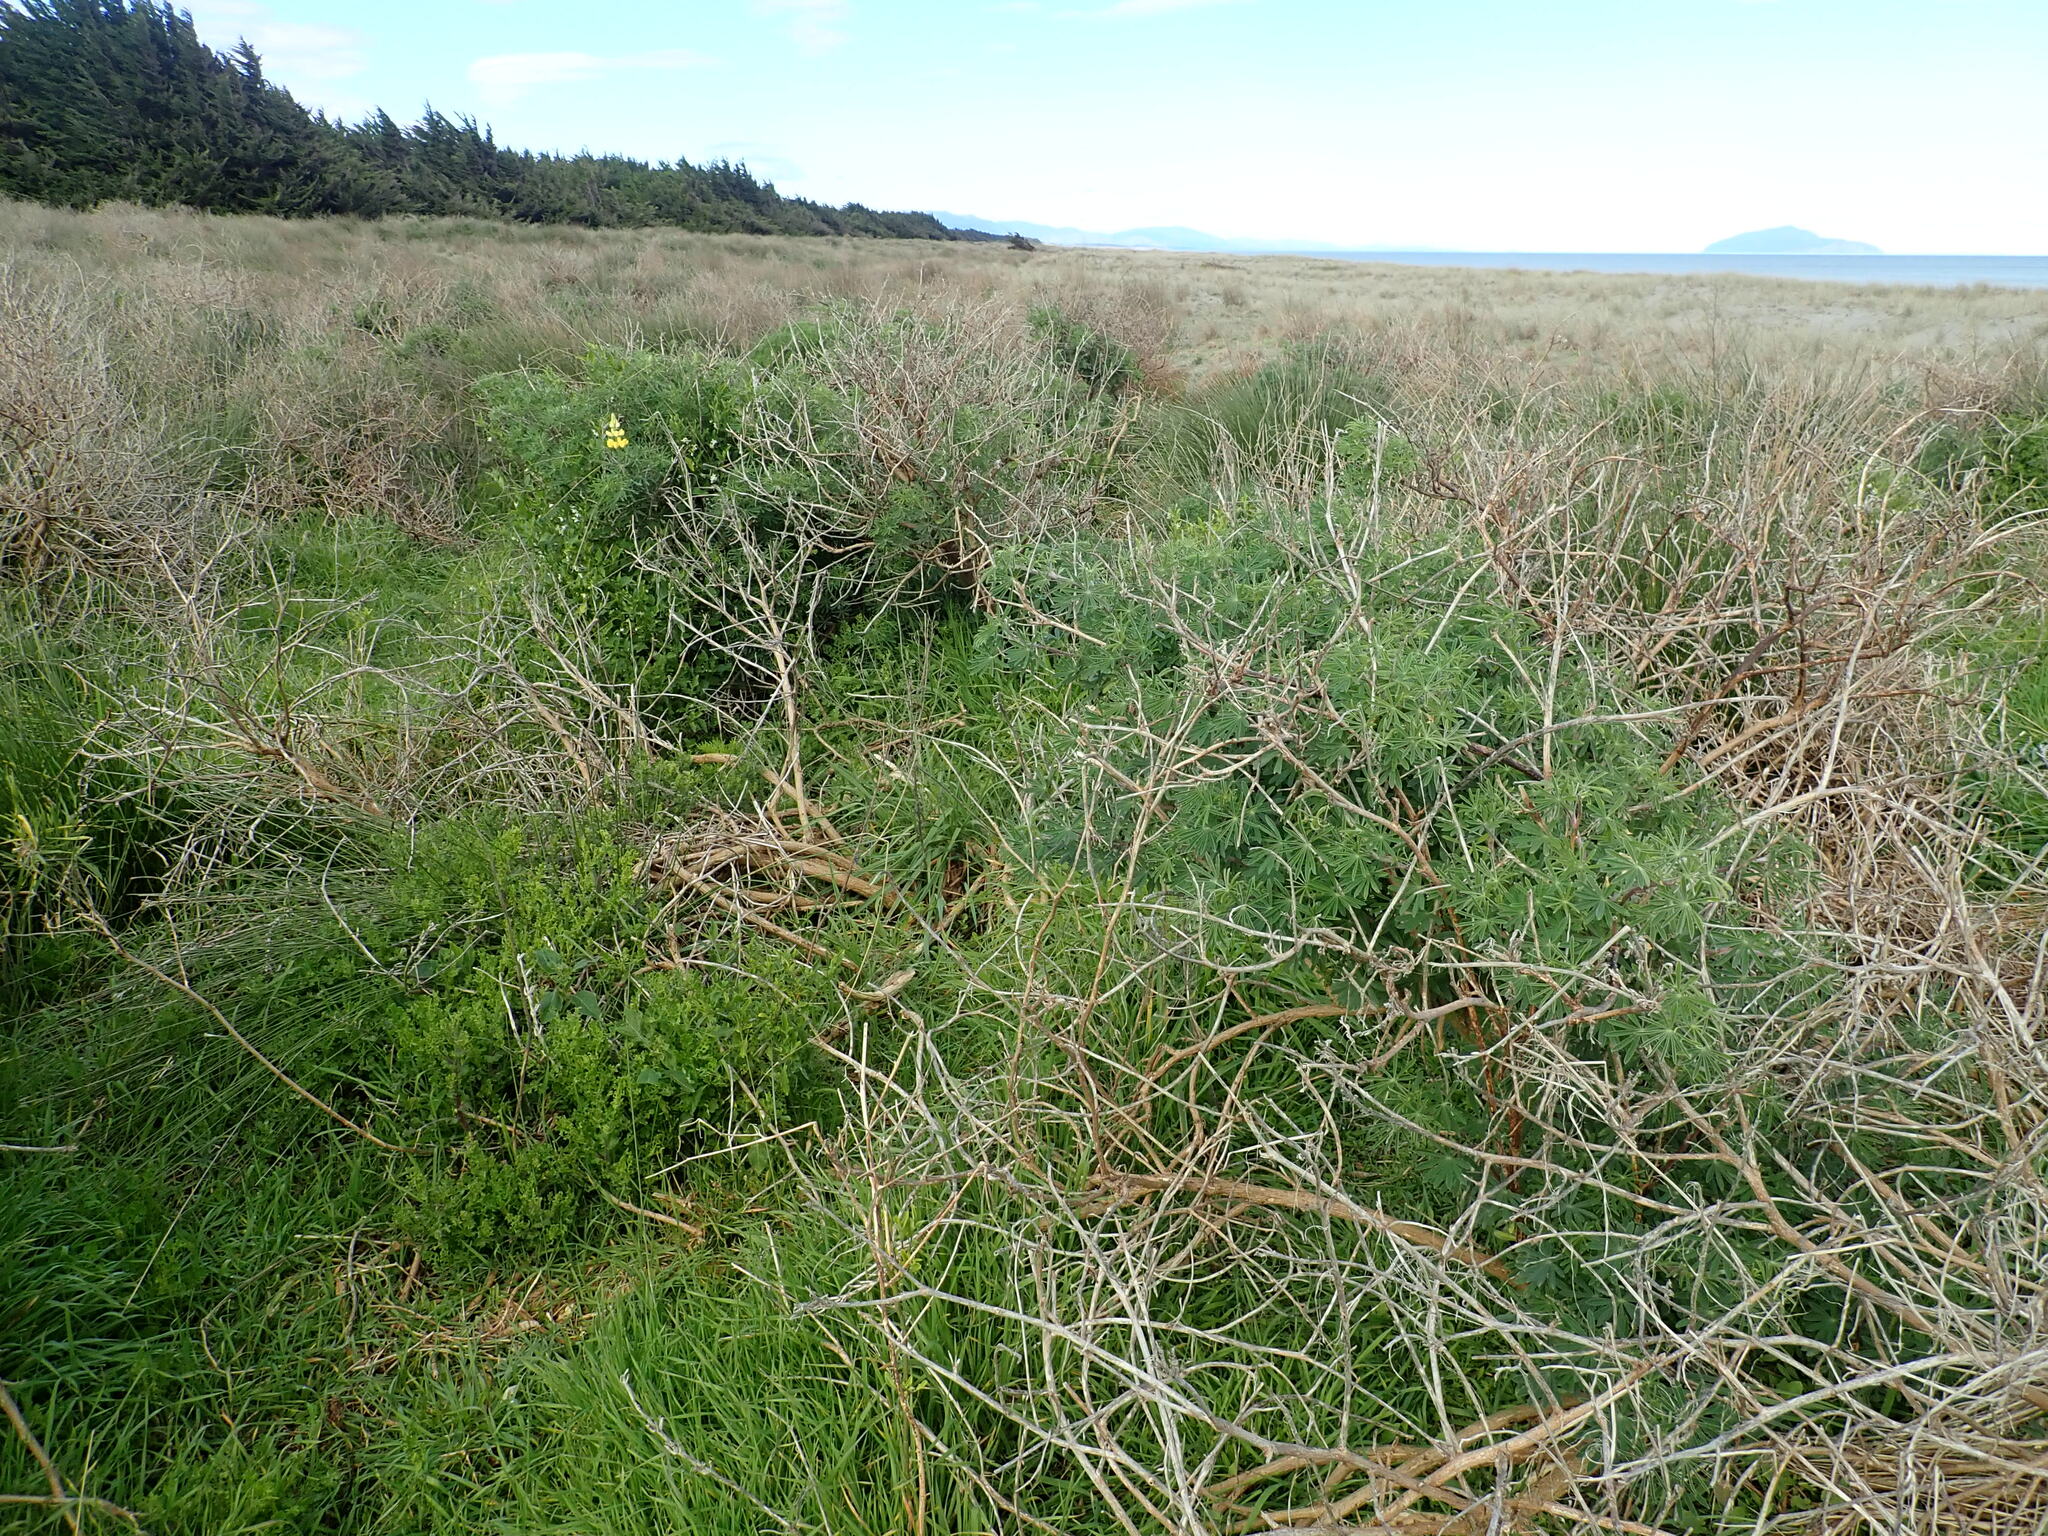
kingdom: Plantae
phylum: Tracheophyta
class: Magnoliopsida
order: Fabales
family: Fabaceae
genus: Lupinus
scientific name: Lupinus arboreus
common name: Yellow bush lupine
